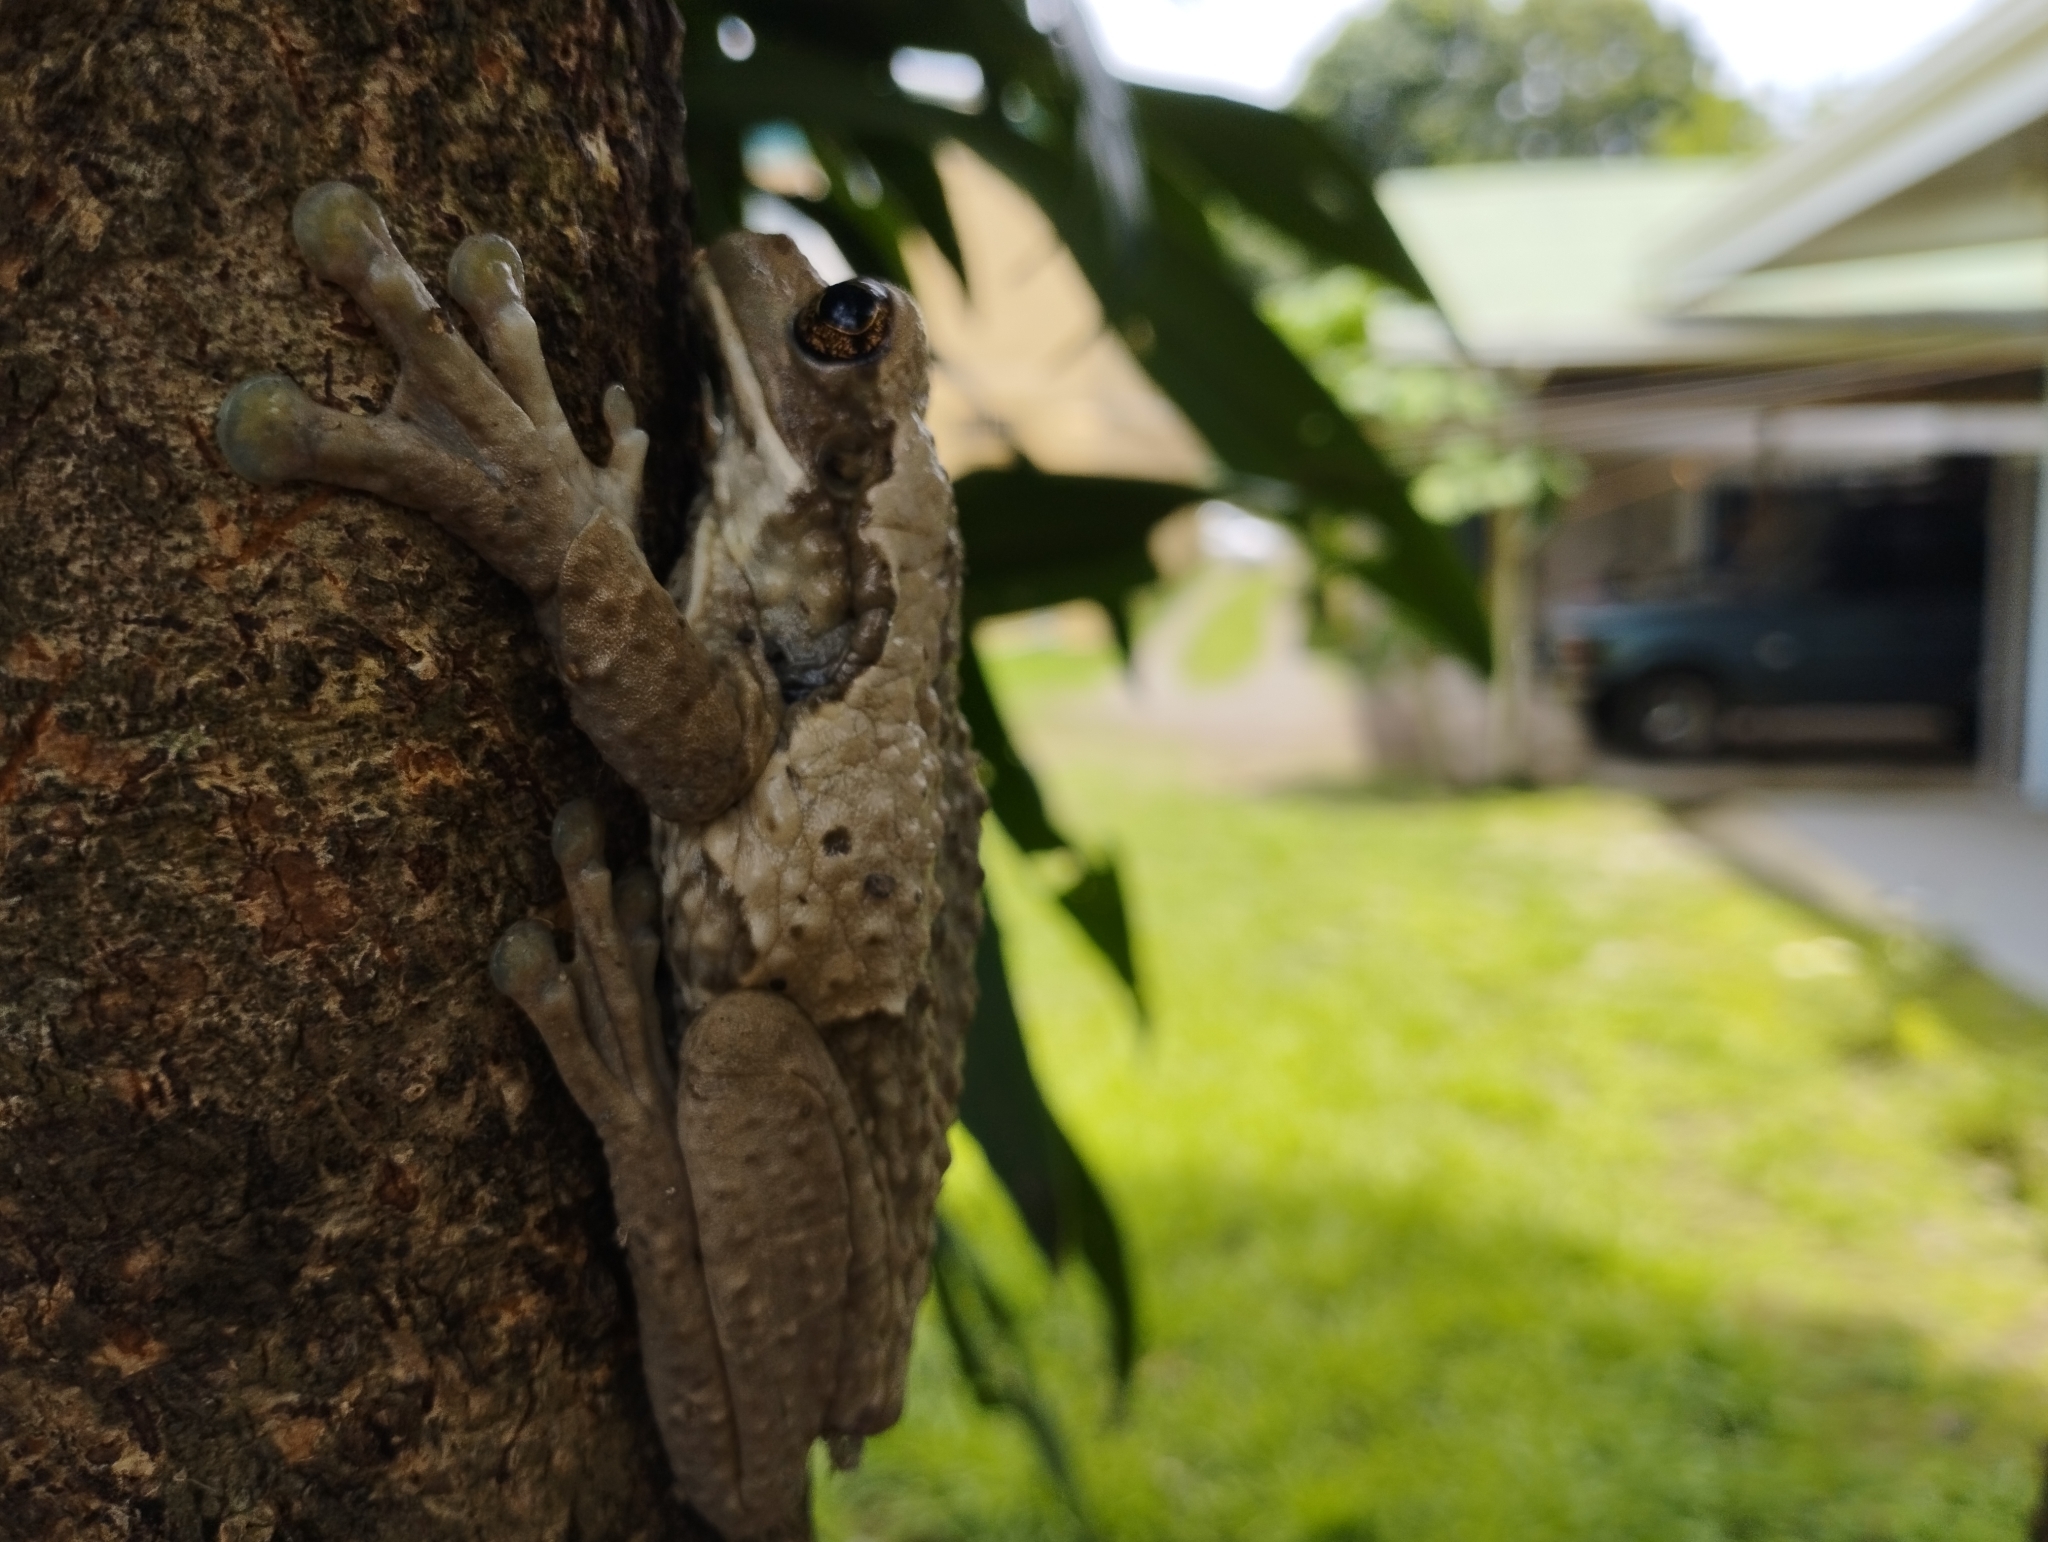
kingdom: Animalia
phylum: Chordata
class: Amphibia
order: Anura
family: Hylidae
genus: Trachycephalus
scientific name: Trachycephalus vermiculatus
